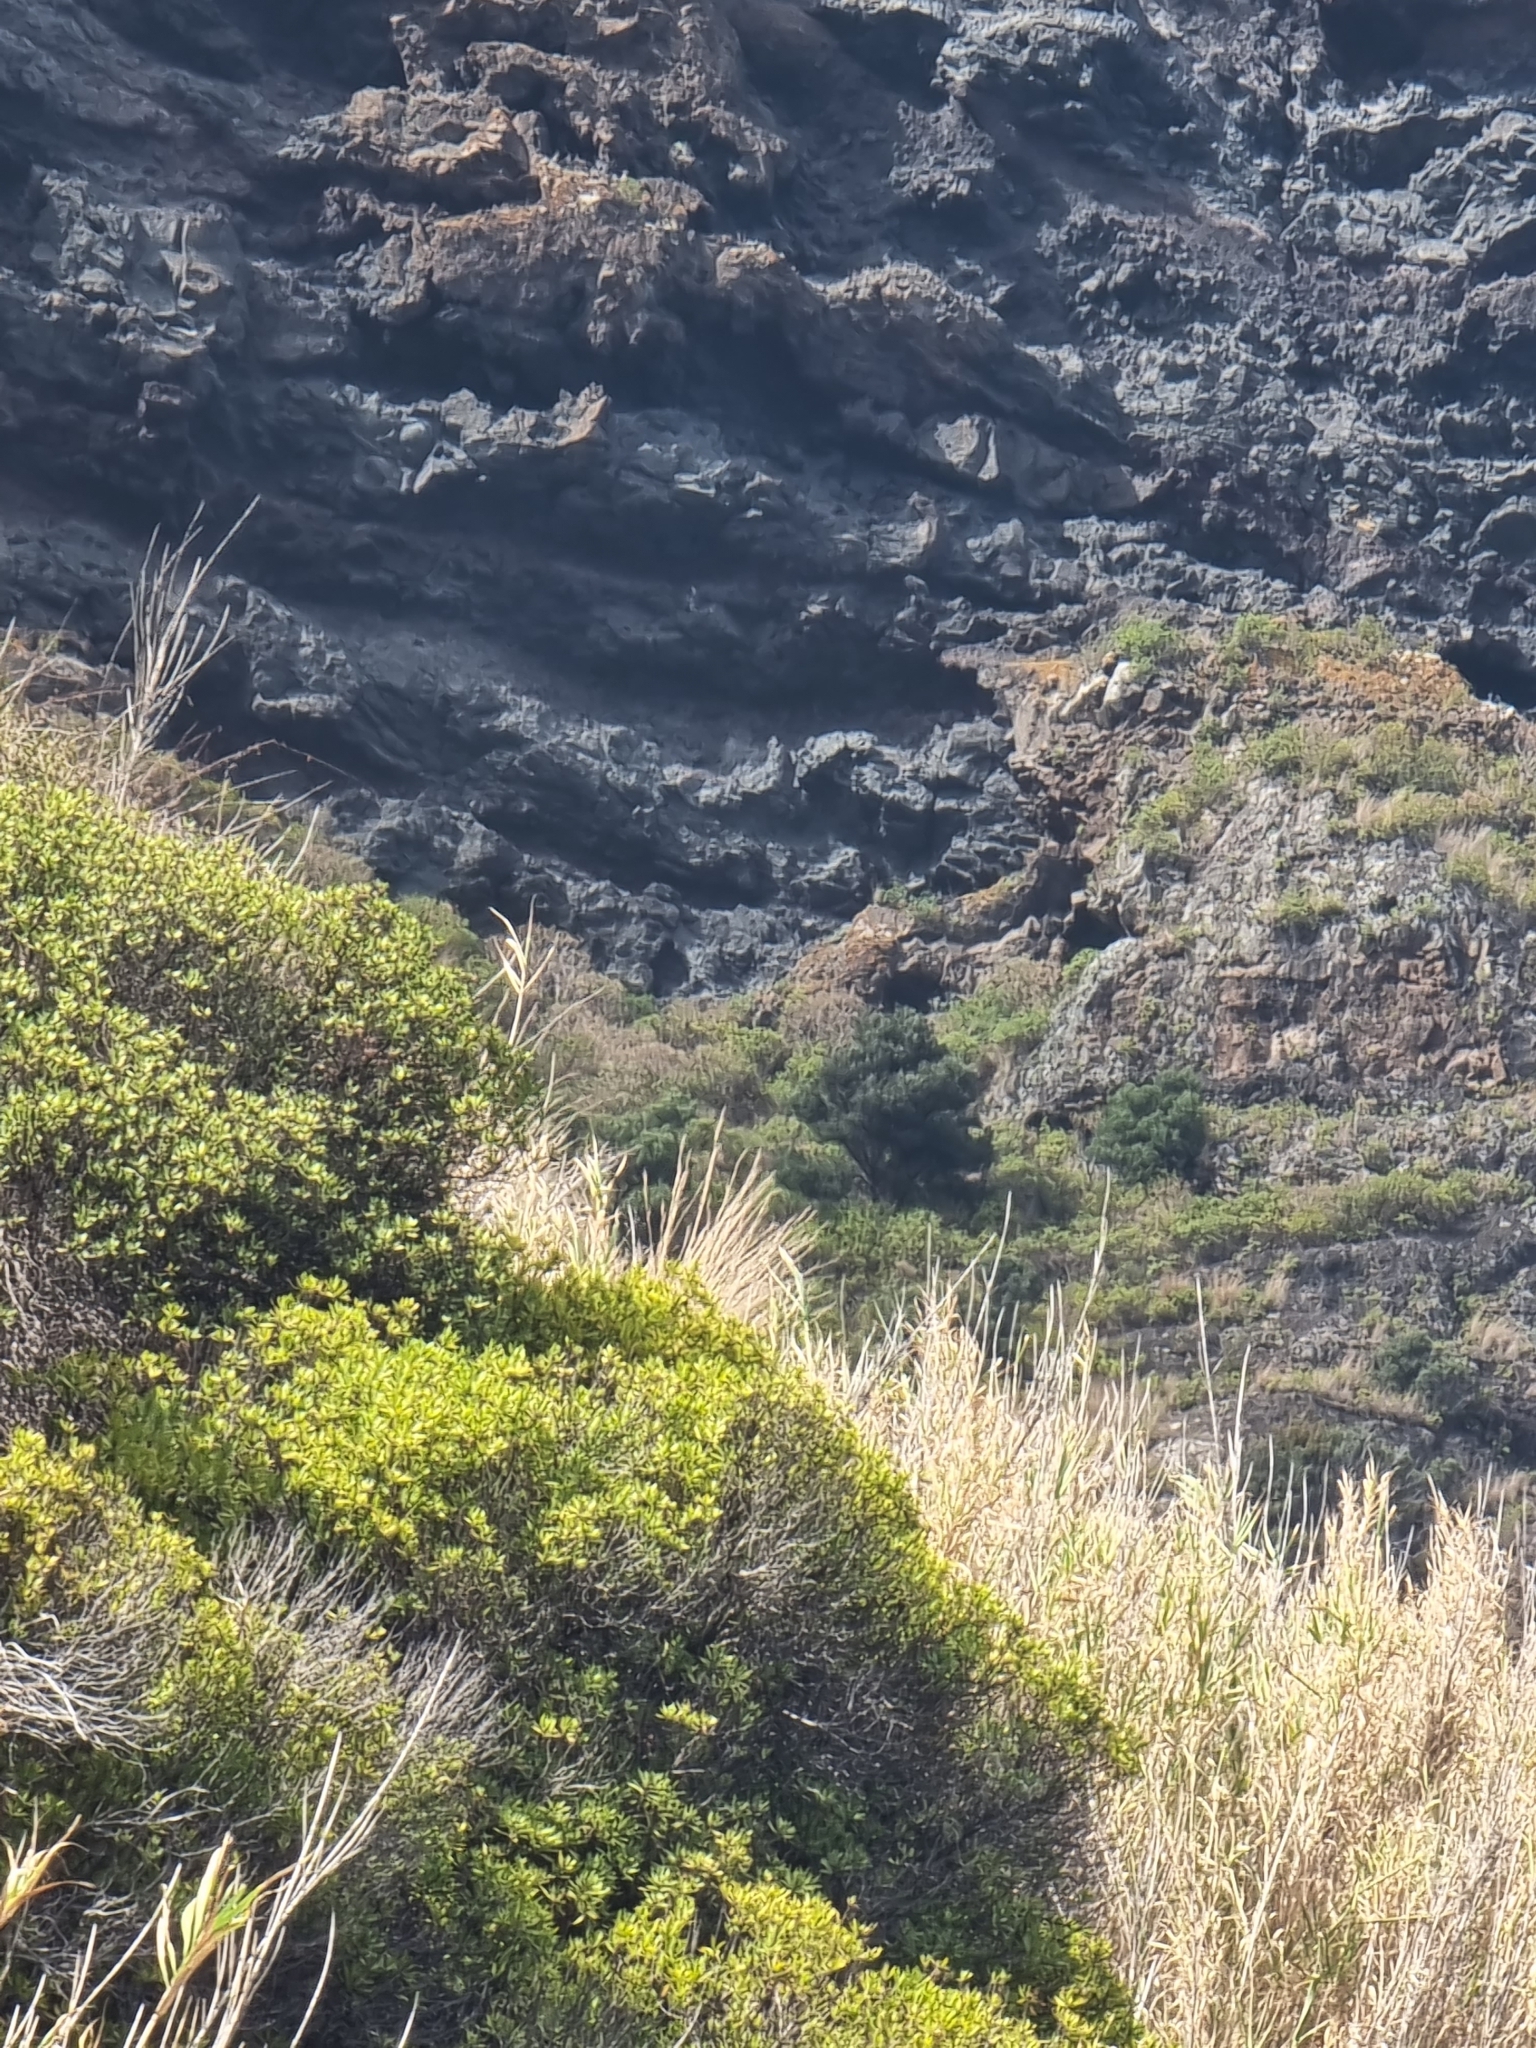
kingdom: Plantae
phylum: Tracheophyta
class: Magnoliopsida
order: Lamiales
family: Oleaceae
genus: Olea
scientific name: Olea europaea
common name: Olive
